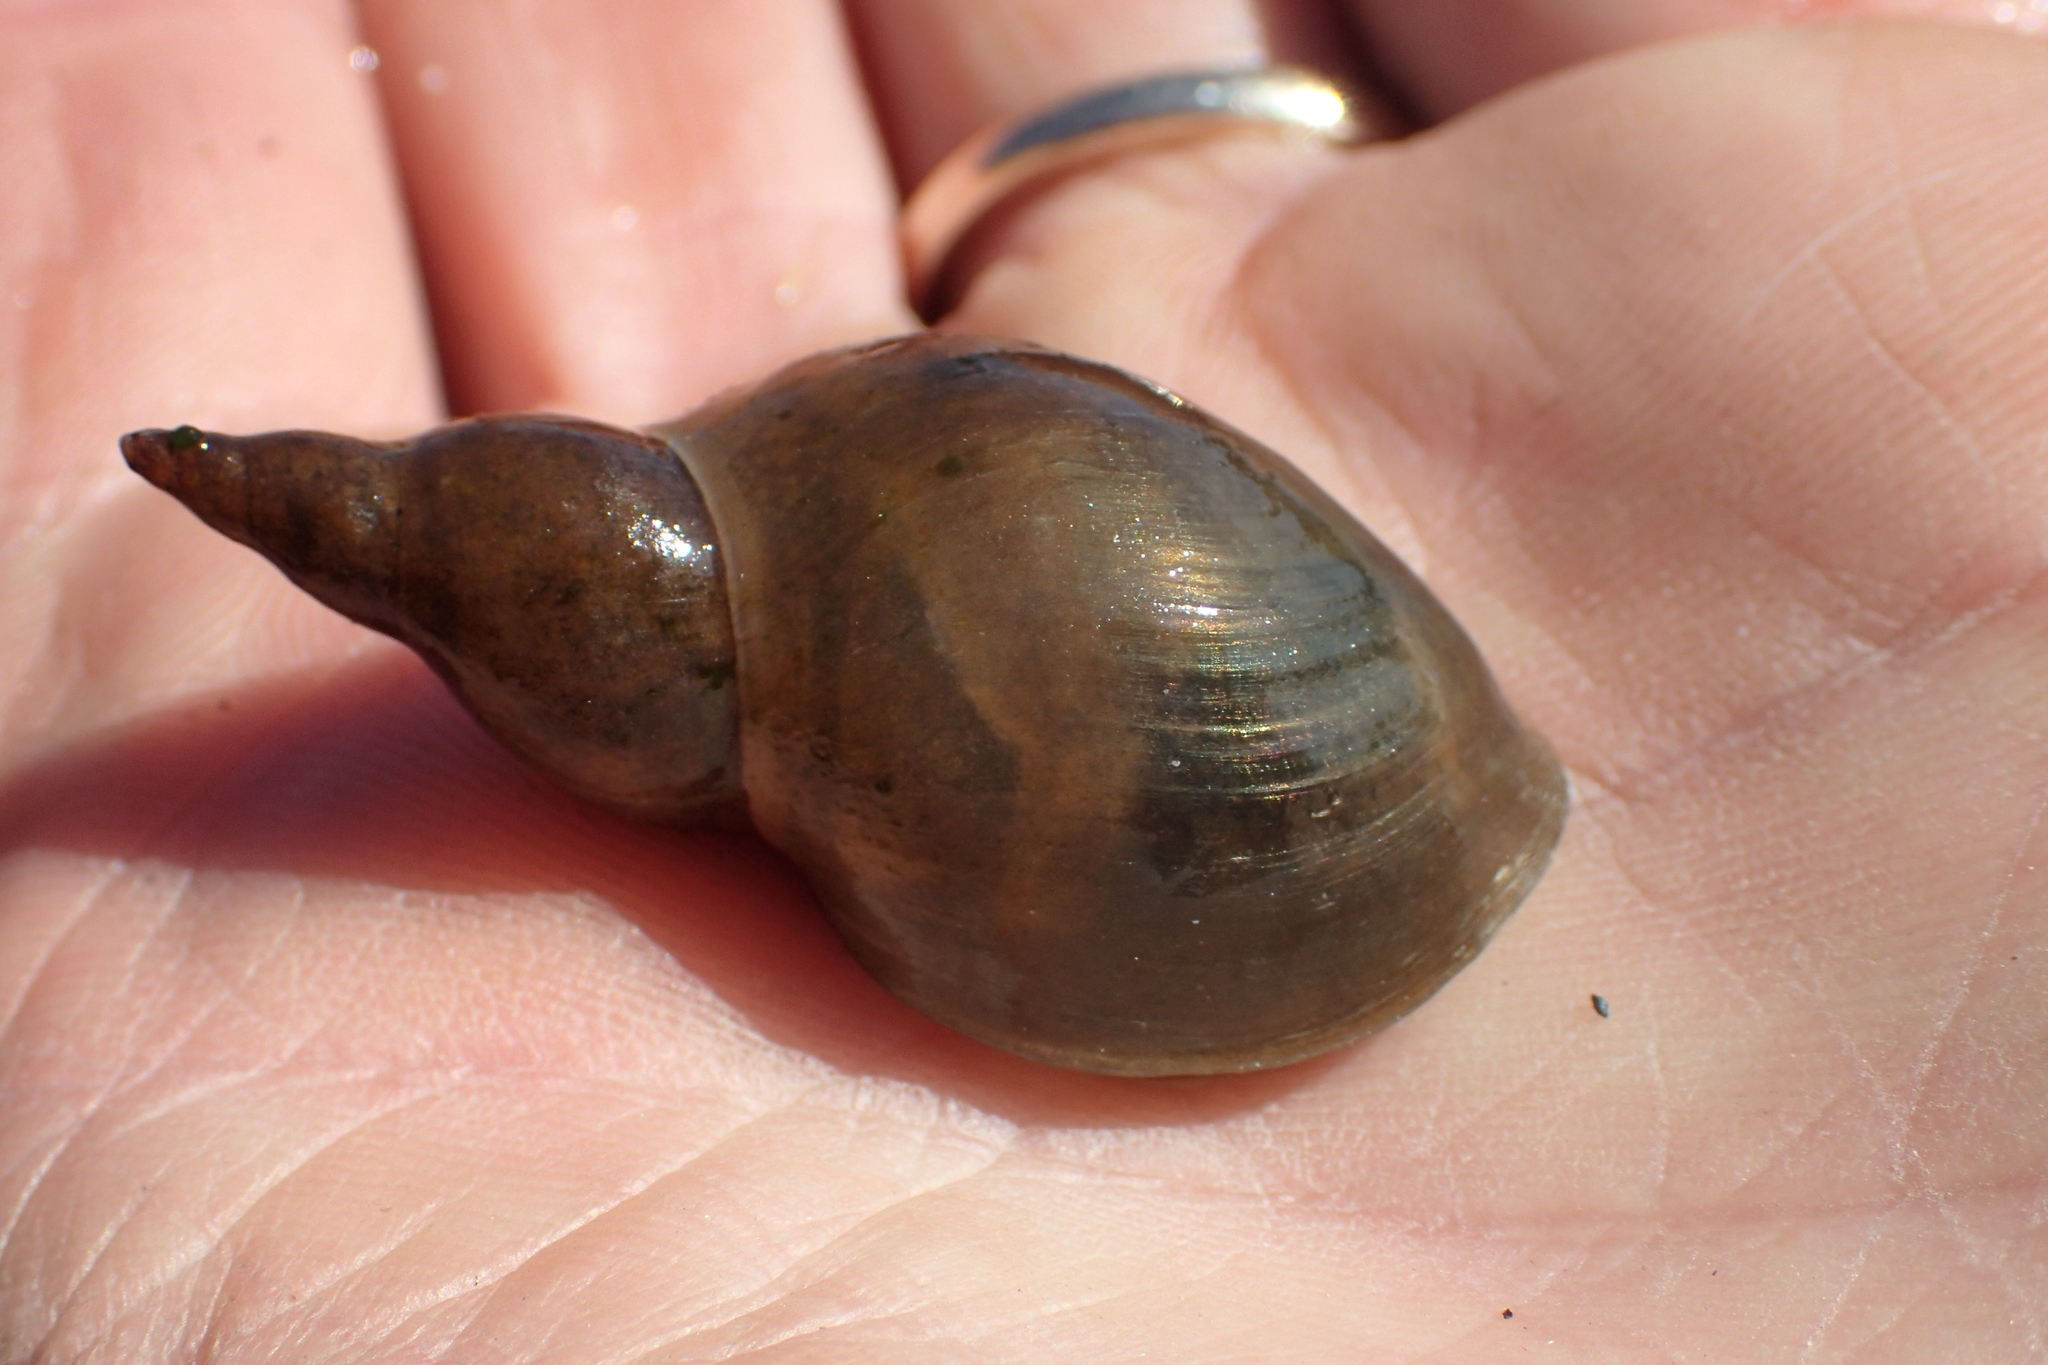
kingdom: Animalia
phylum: Mollusca
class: Gastropoda
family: Lymnaeidae
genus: Lymnaea
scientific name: Lymnaea stagnalis
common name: Great pond snail
